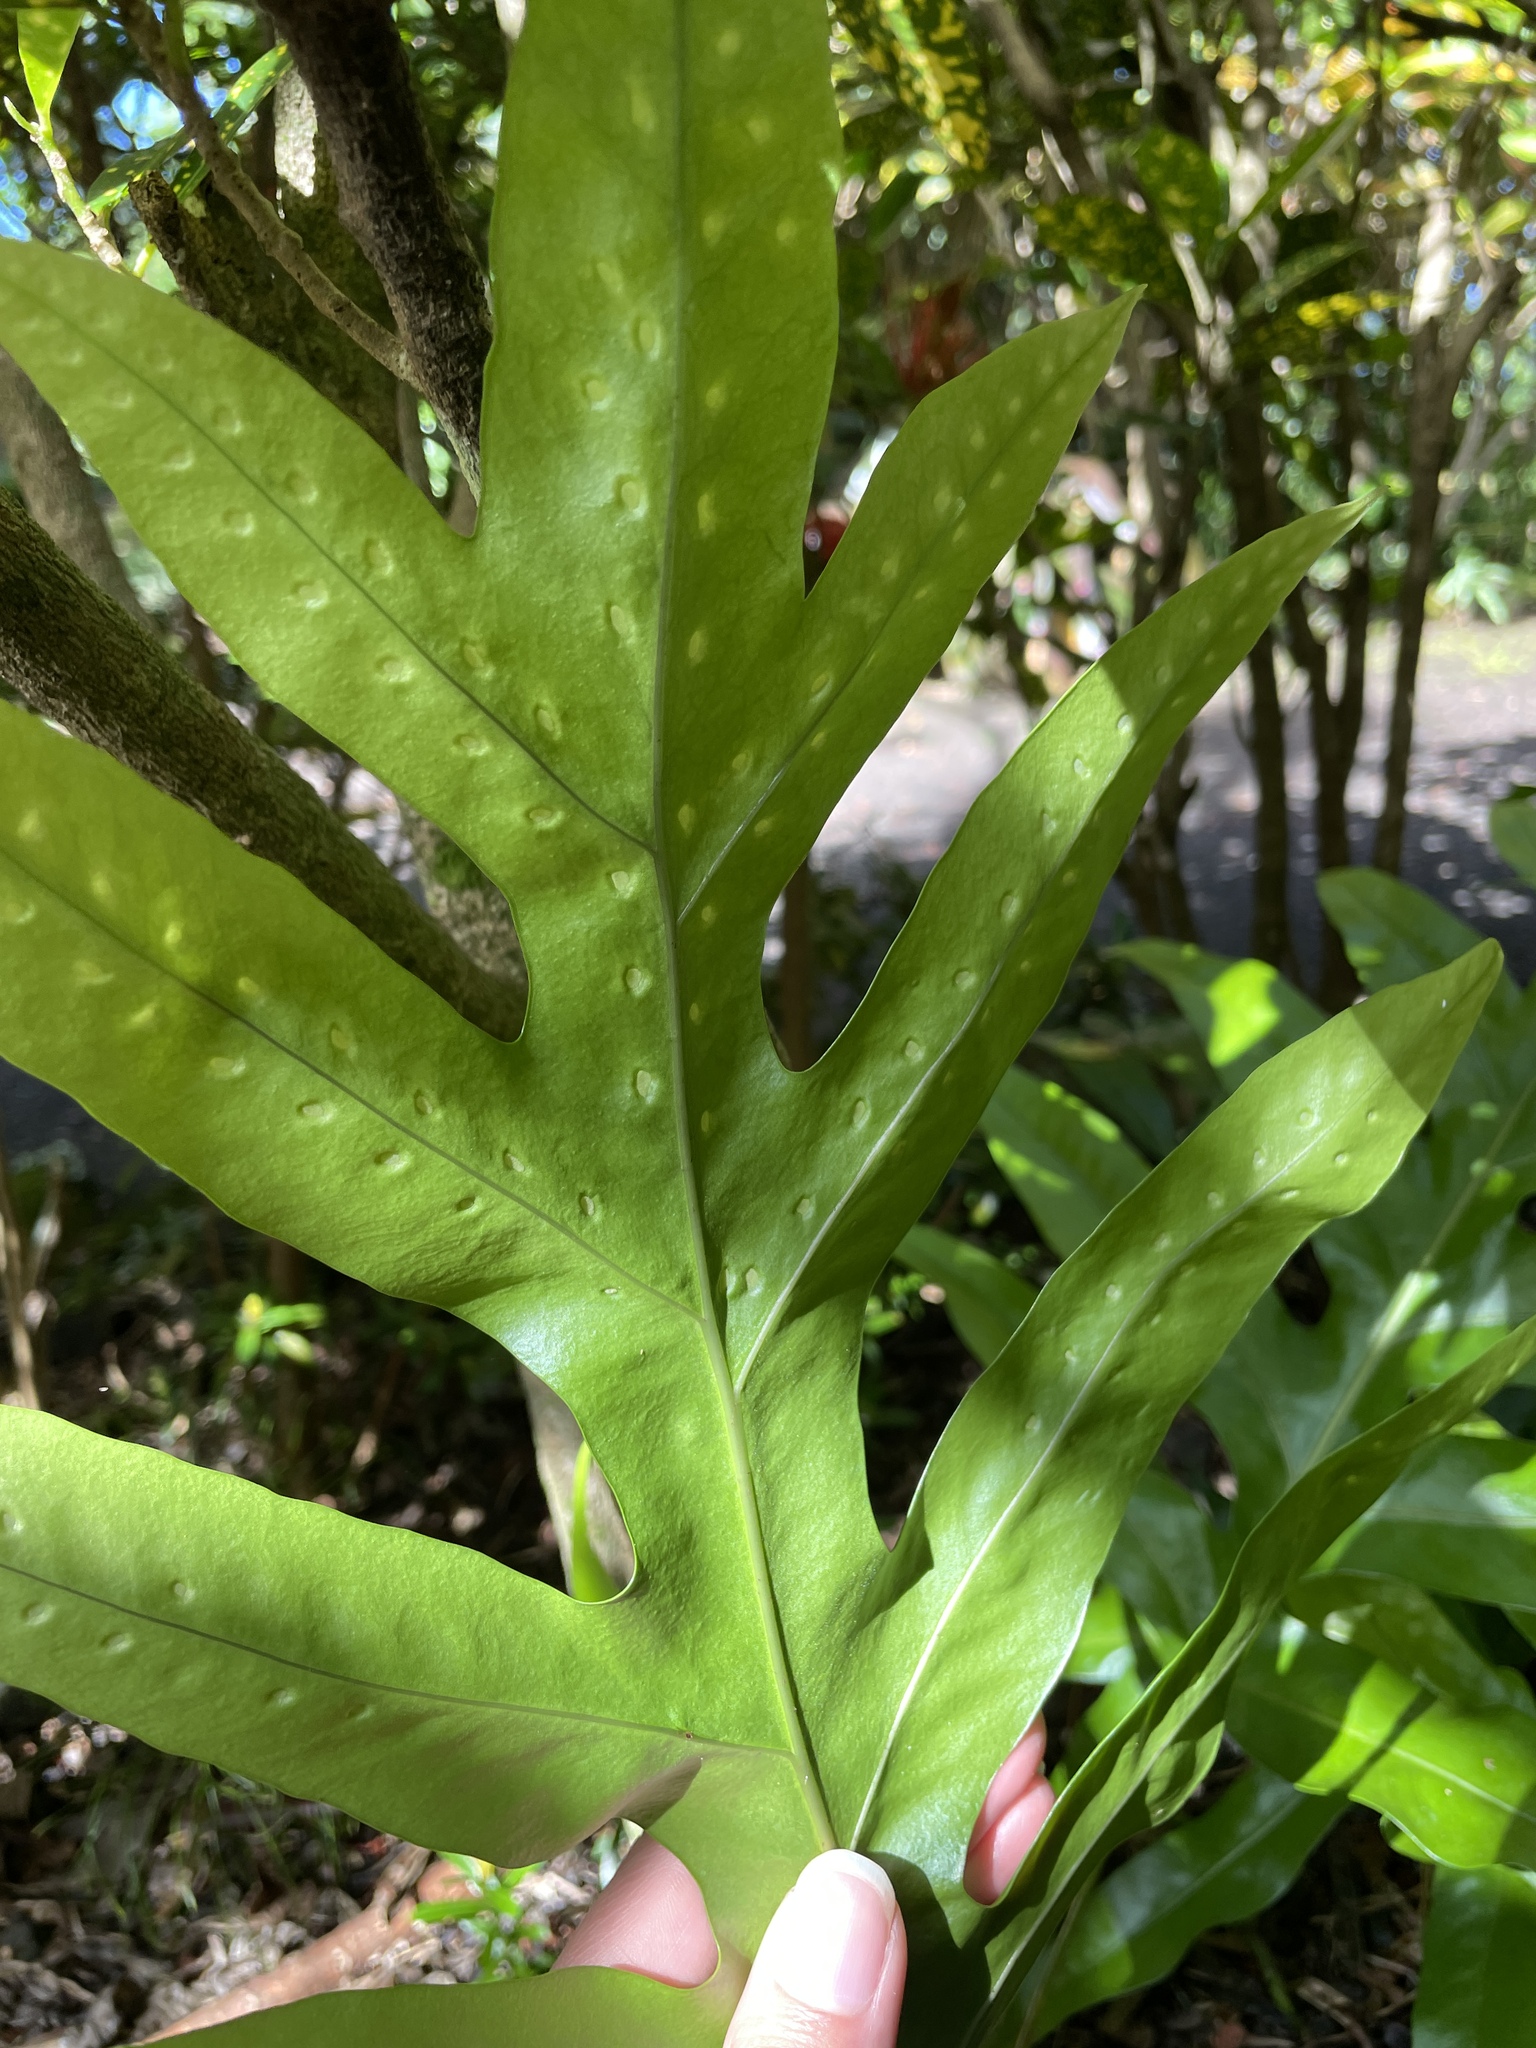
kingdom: Plantae
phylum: Tracheophyta
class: Polypodiopsida
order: Polypodiales
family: Polypodiaceae
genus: Microsorum
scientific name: Microsorum grossum
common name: Musk fern
